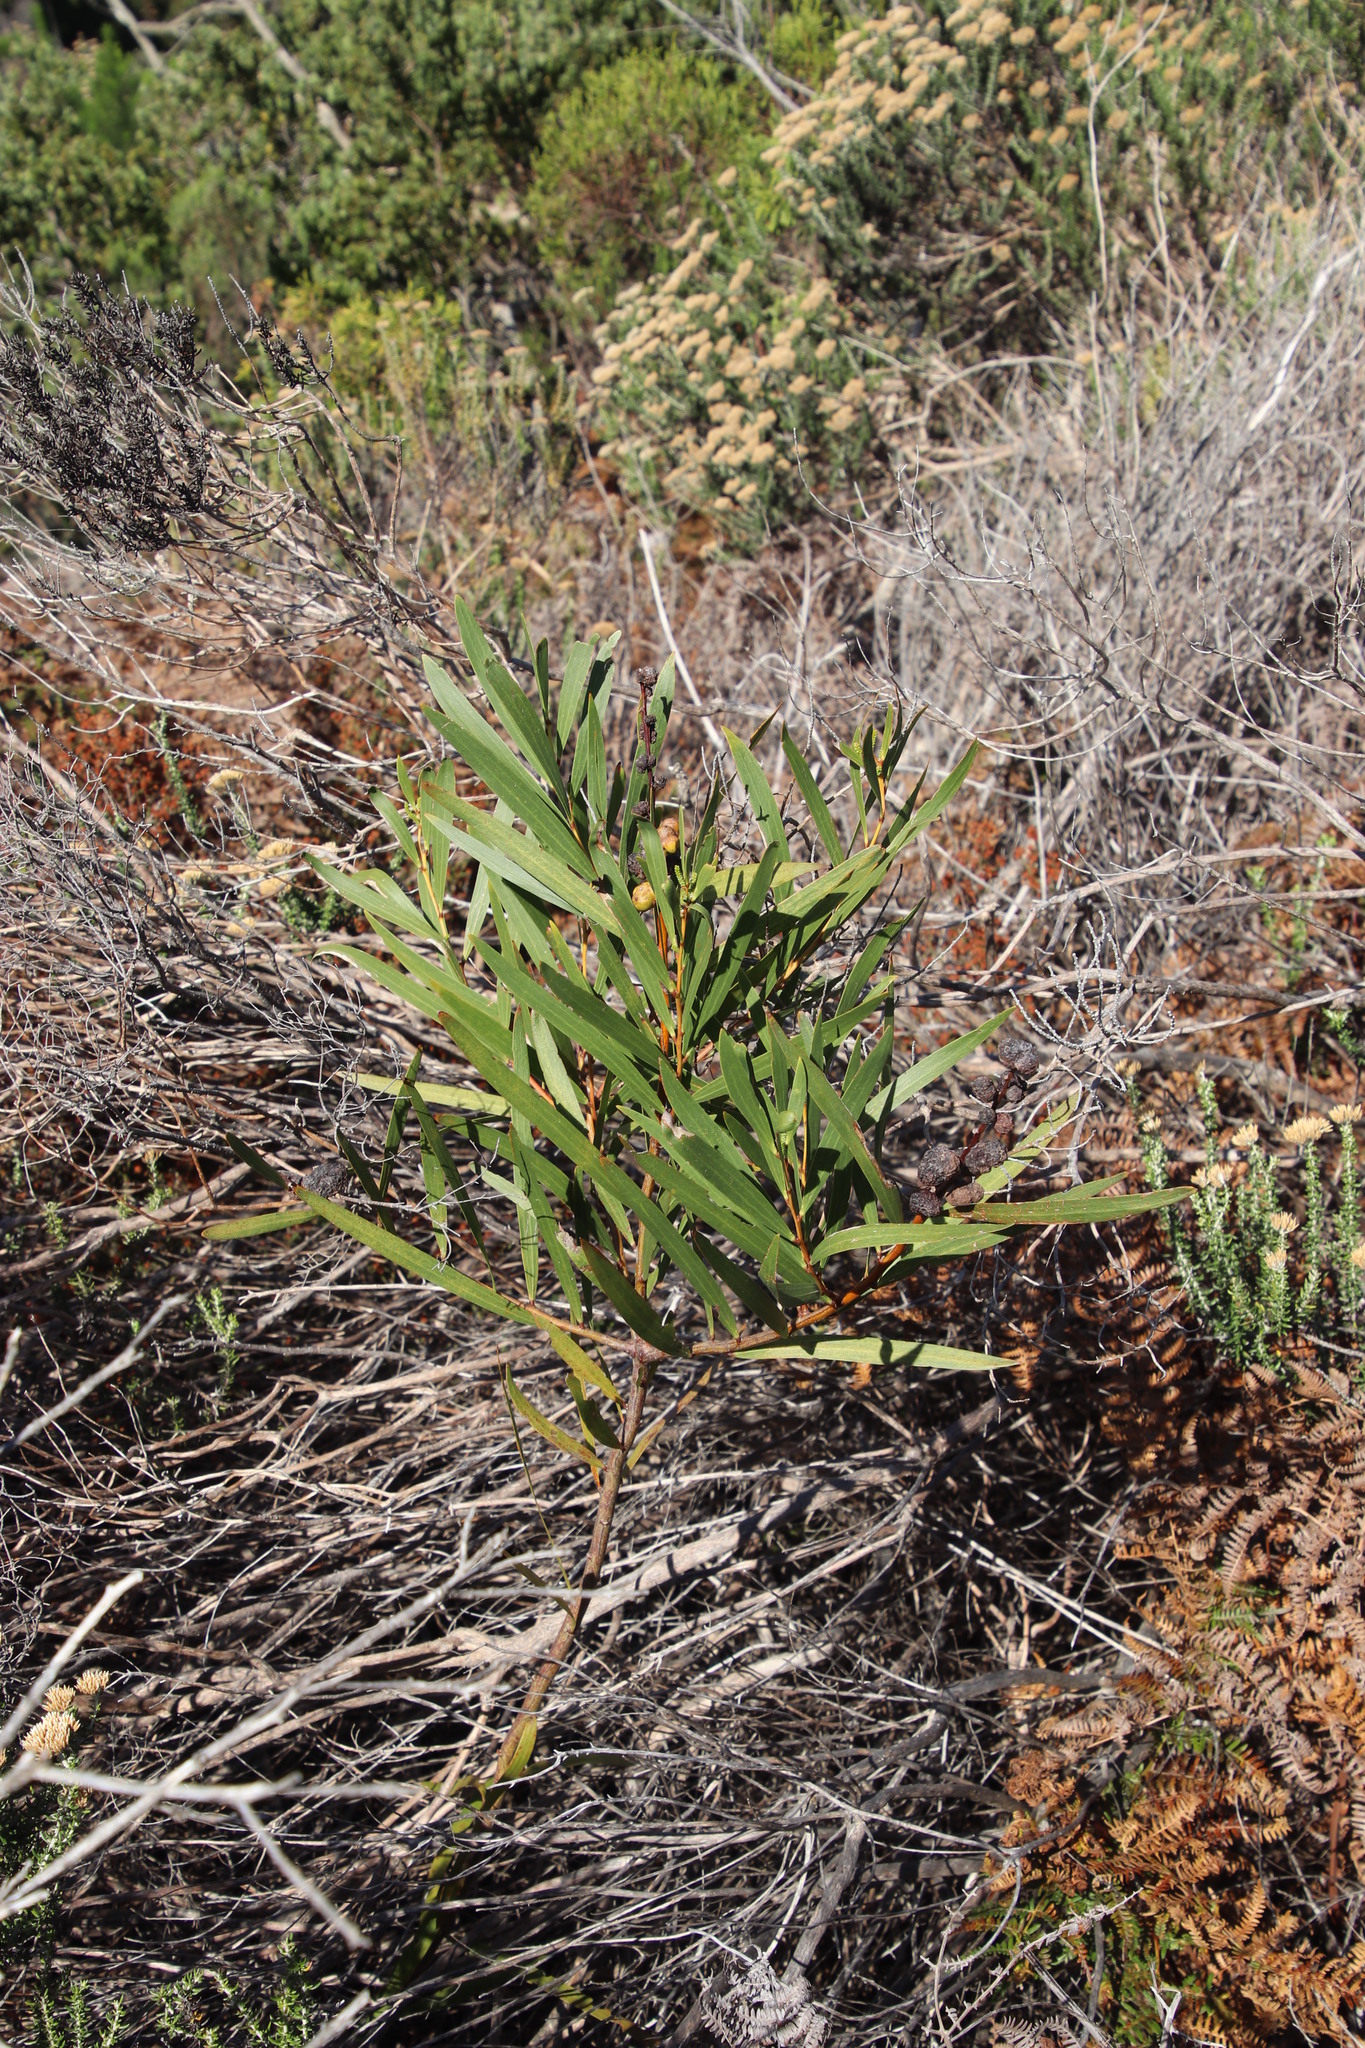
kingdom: Plantae
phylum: Tracheophyta
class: Magnoliopsida
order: Fabales
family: Fabaceae
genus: Acacia
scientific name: Acacia longifolia
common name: Sydney golden wattle
